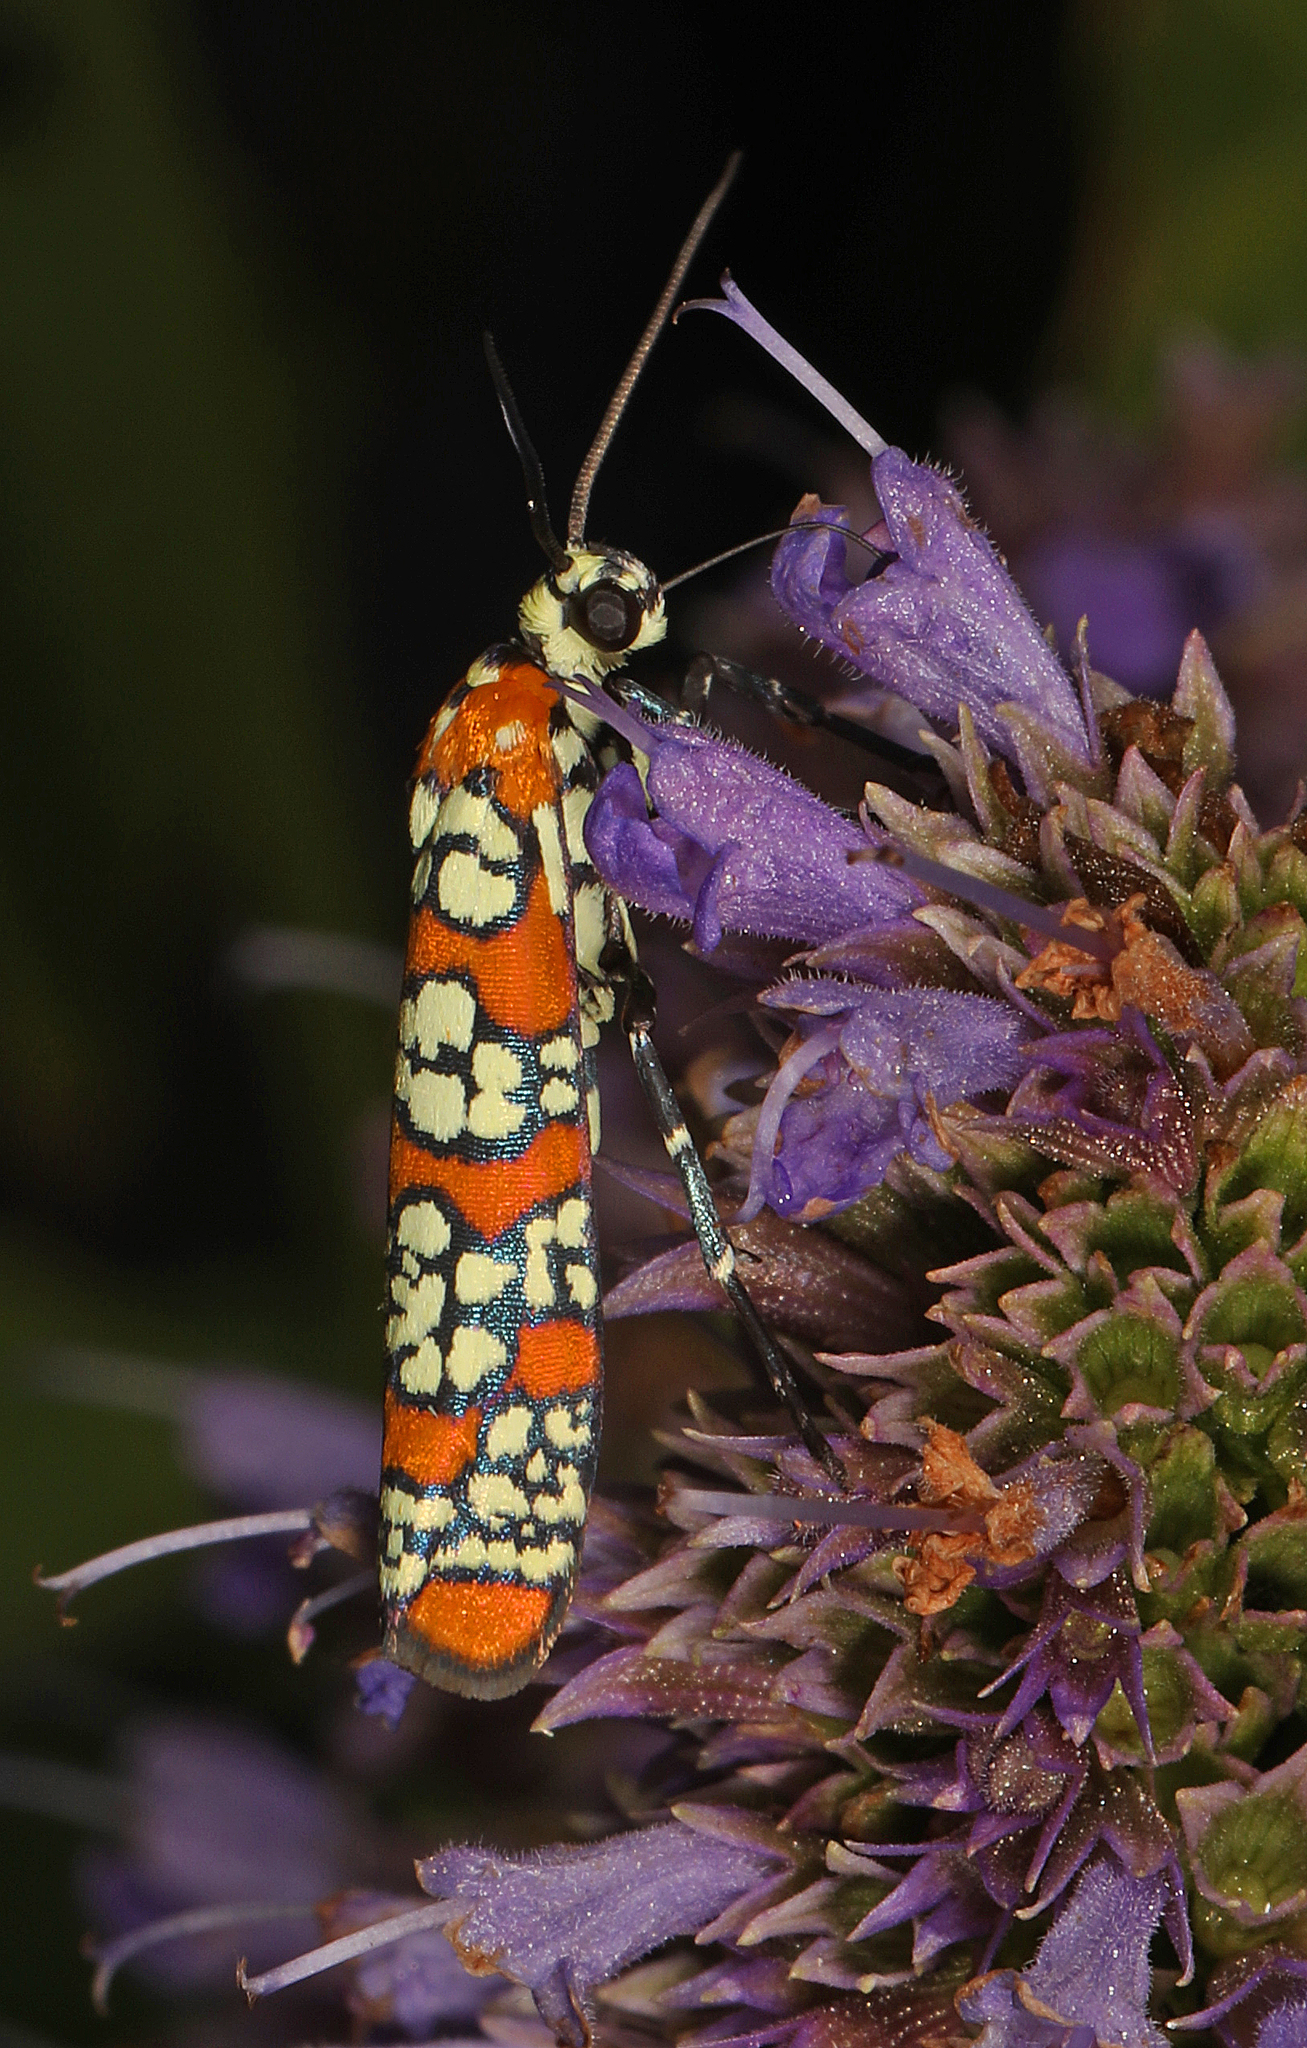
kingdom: Animalia
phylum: Arthropoda
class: Insecta
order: Lepidoptera
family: Attevidae
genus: Atteva
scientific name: Atteva punctella
